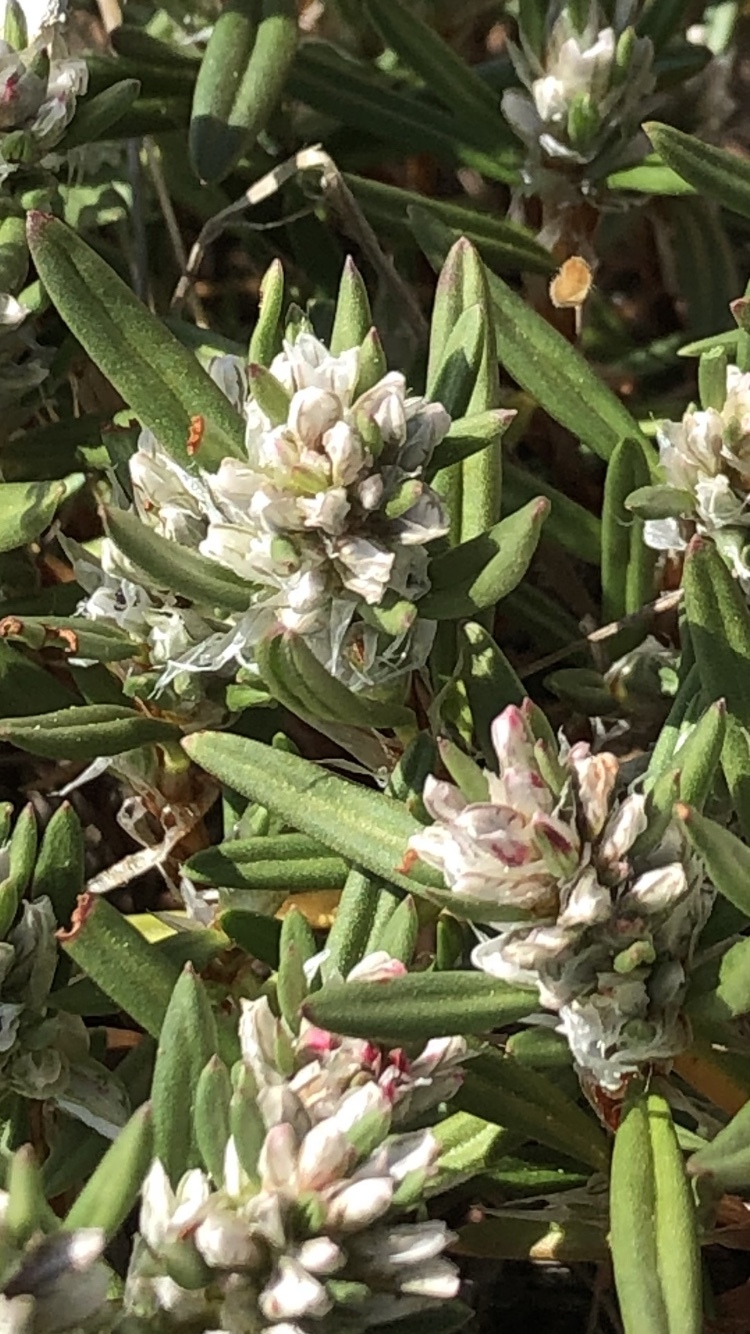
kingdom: Plantae
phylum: Tracheophyta
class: Magnoliopsida
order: Caryophyllales
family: Polygonaceae
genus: Polygonum
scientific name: Polygonum paronychia
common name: Dune knotweed
